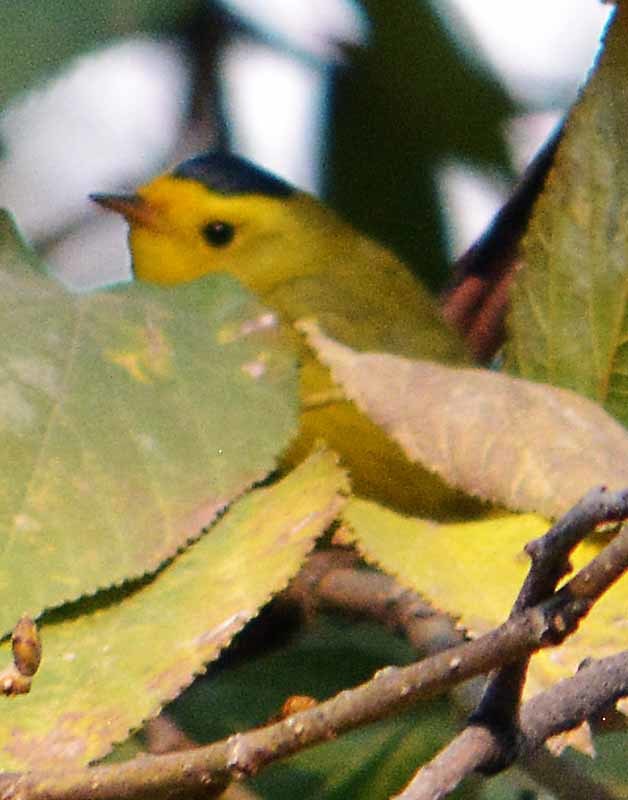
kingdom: Animalia
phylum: Chordata
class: Aves
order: Passeriformes
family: Parulidae
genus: Cardellina
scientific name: Cardellina pusilla
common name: Wilson's warbler
